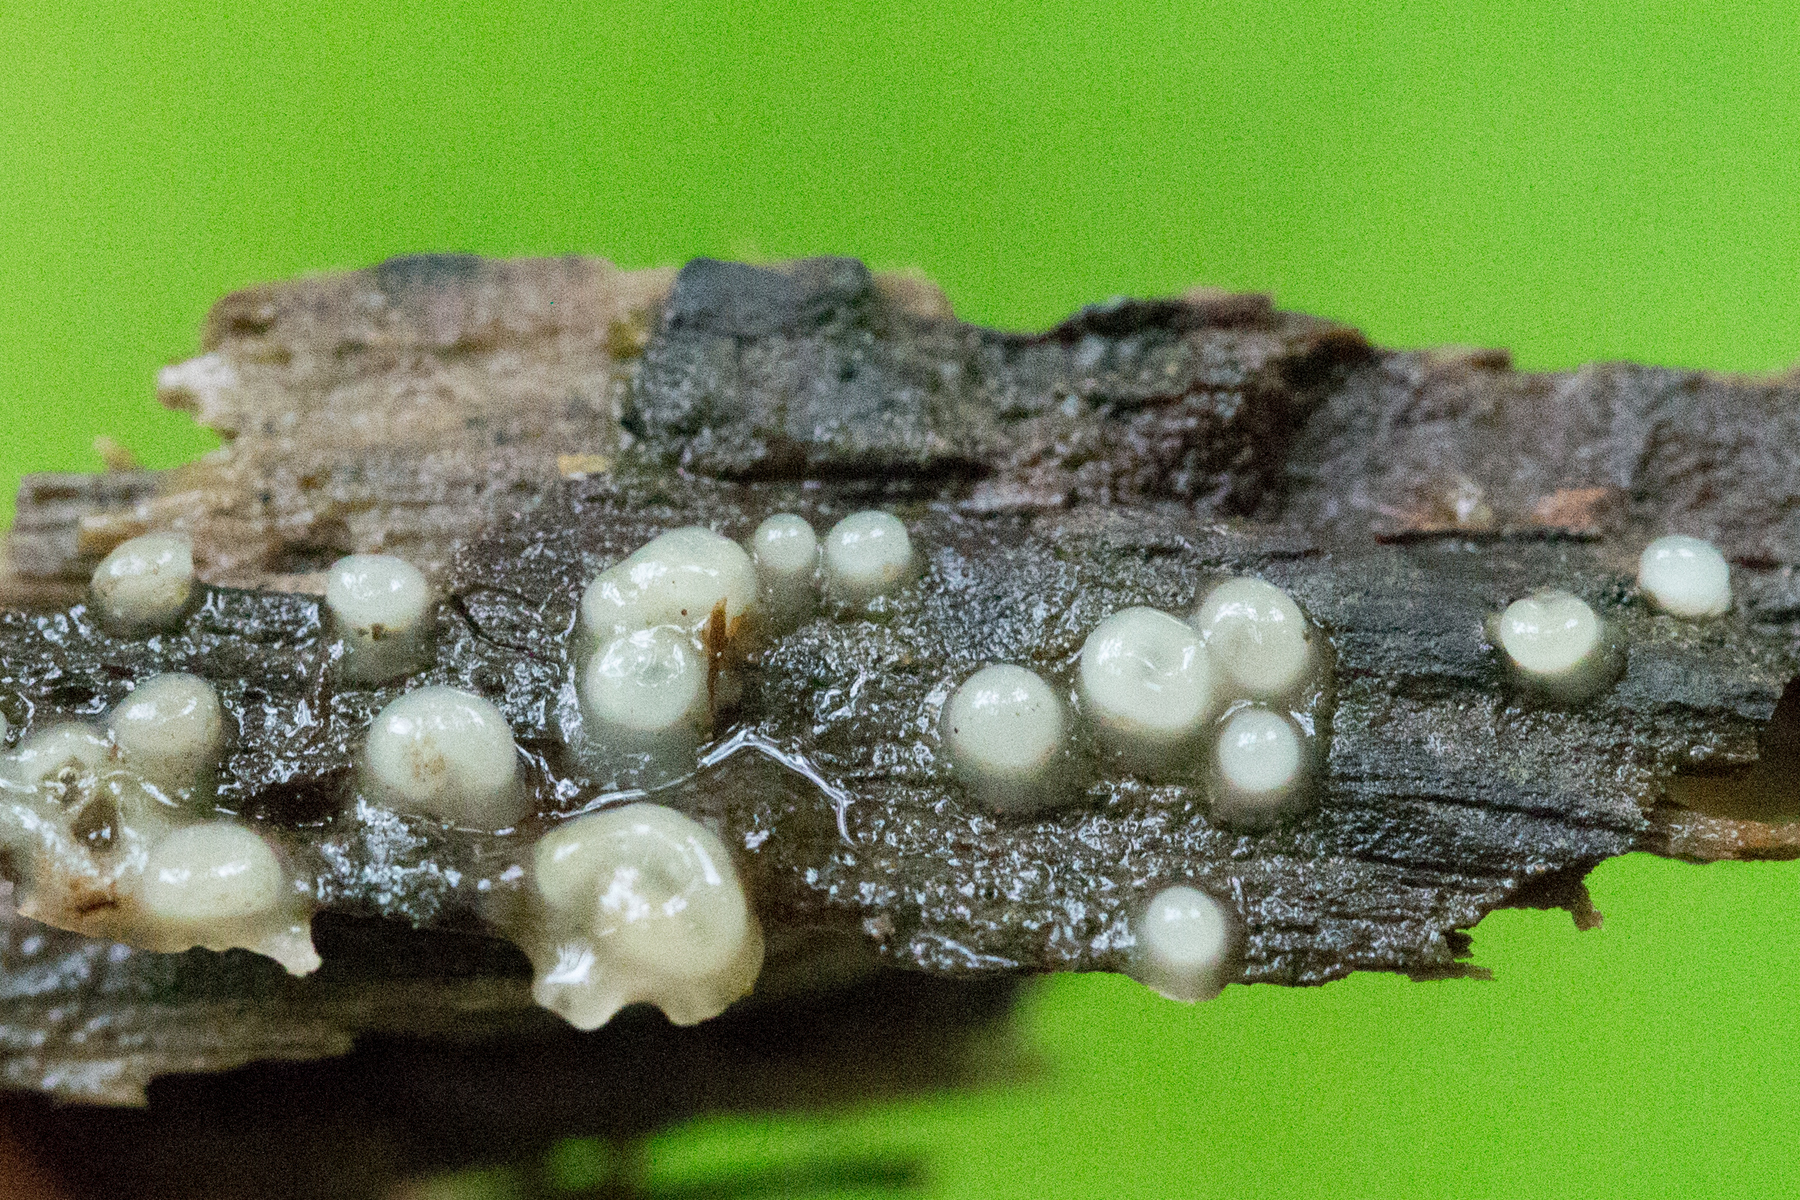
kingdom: Fungi
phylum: Basidiomycota
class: Atractiellomycetes
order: Atractiellales
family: Phleogenaceae
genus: Helicogloea
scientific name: Helicogloea compressa
